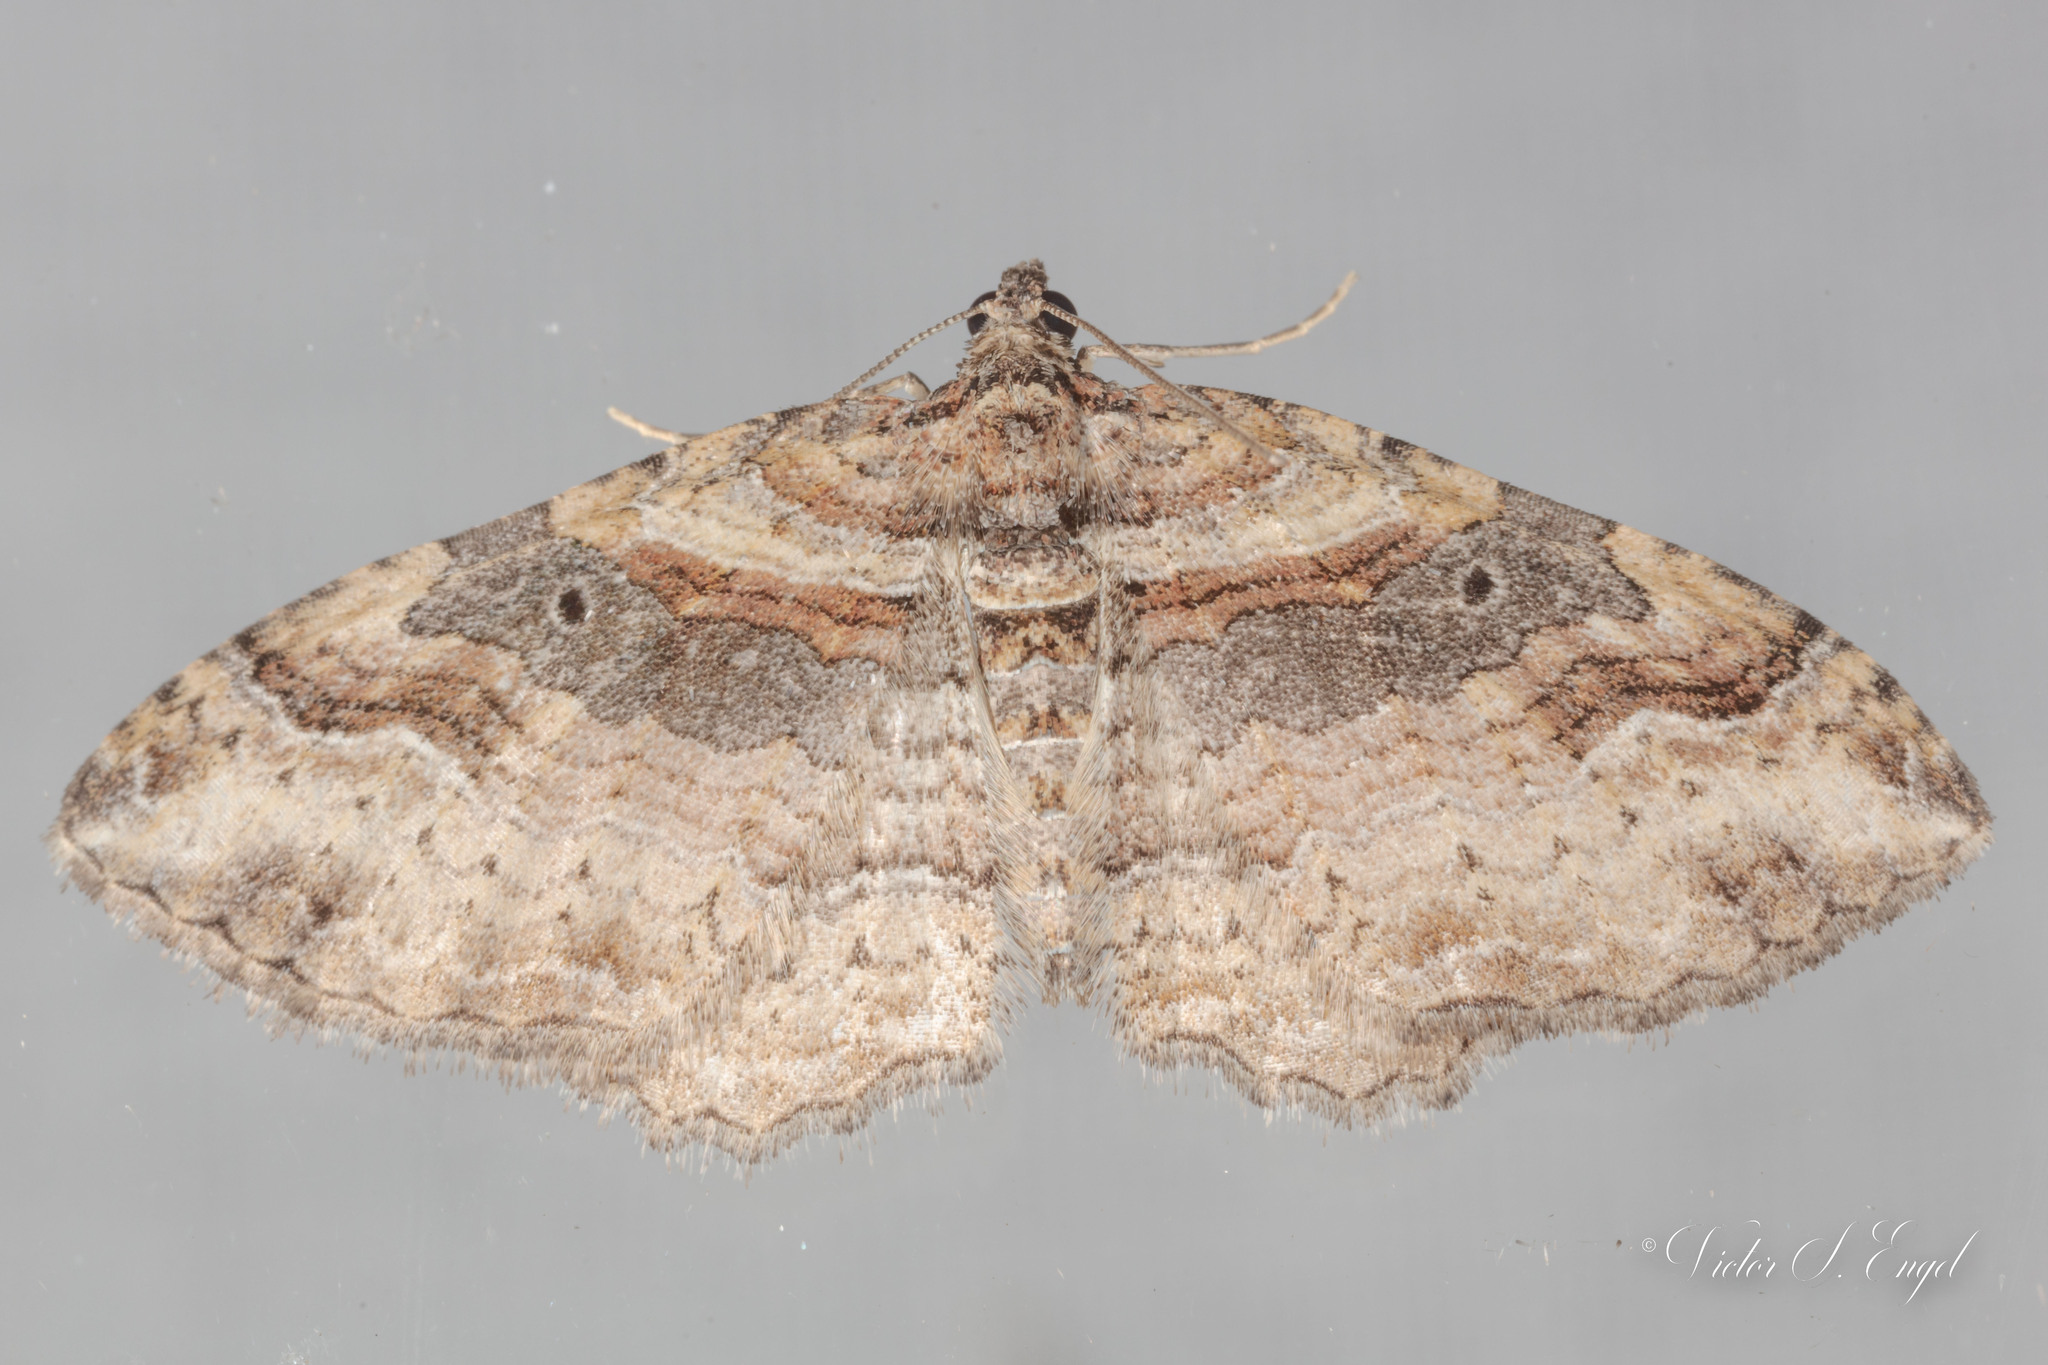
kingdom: Animalia
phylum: Arthropoda
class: Insecta
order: Lepidoptera
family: Geometridae
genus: Costaconvexa
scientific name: Costaconvexa centrostrigaria
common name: Bent-line carpet
